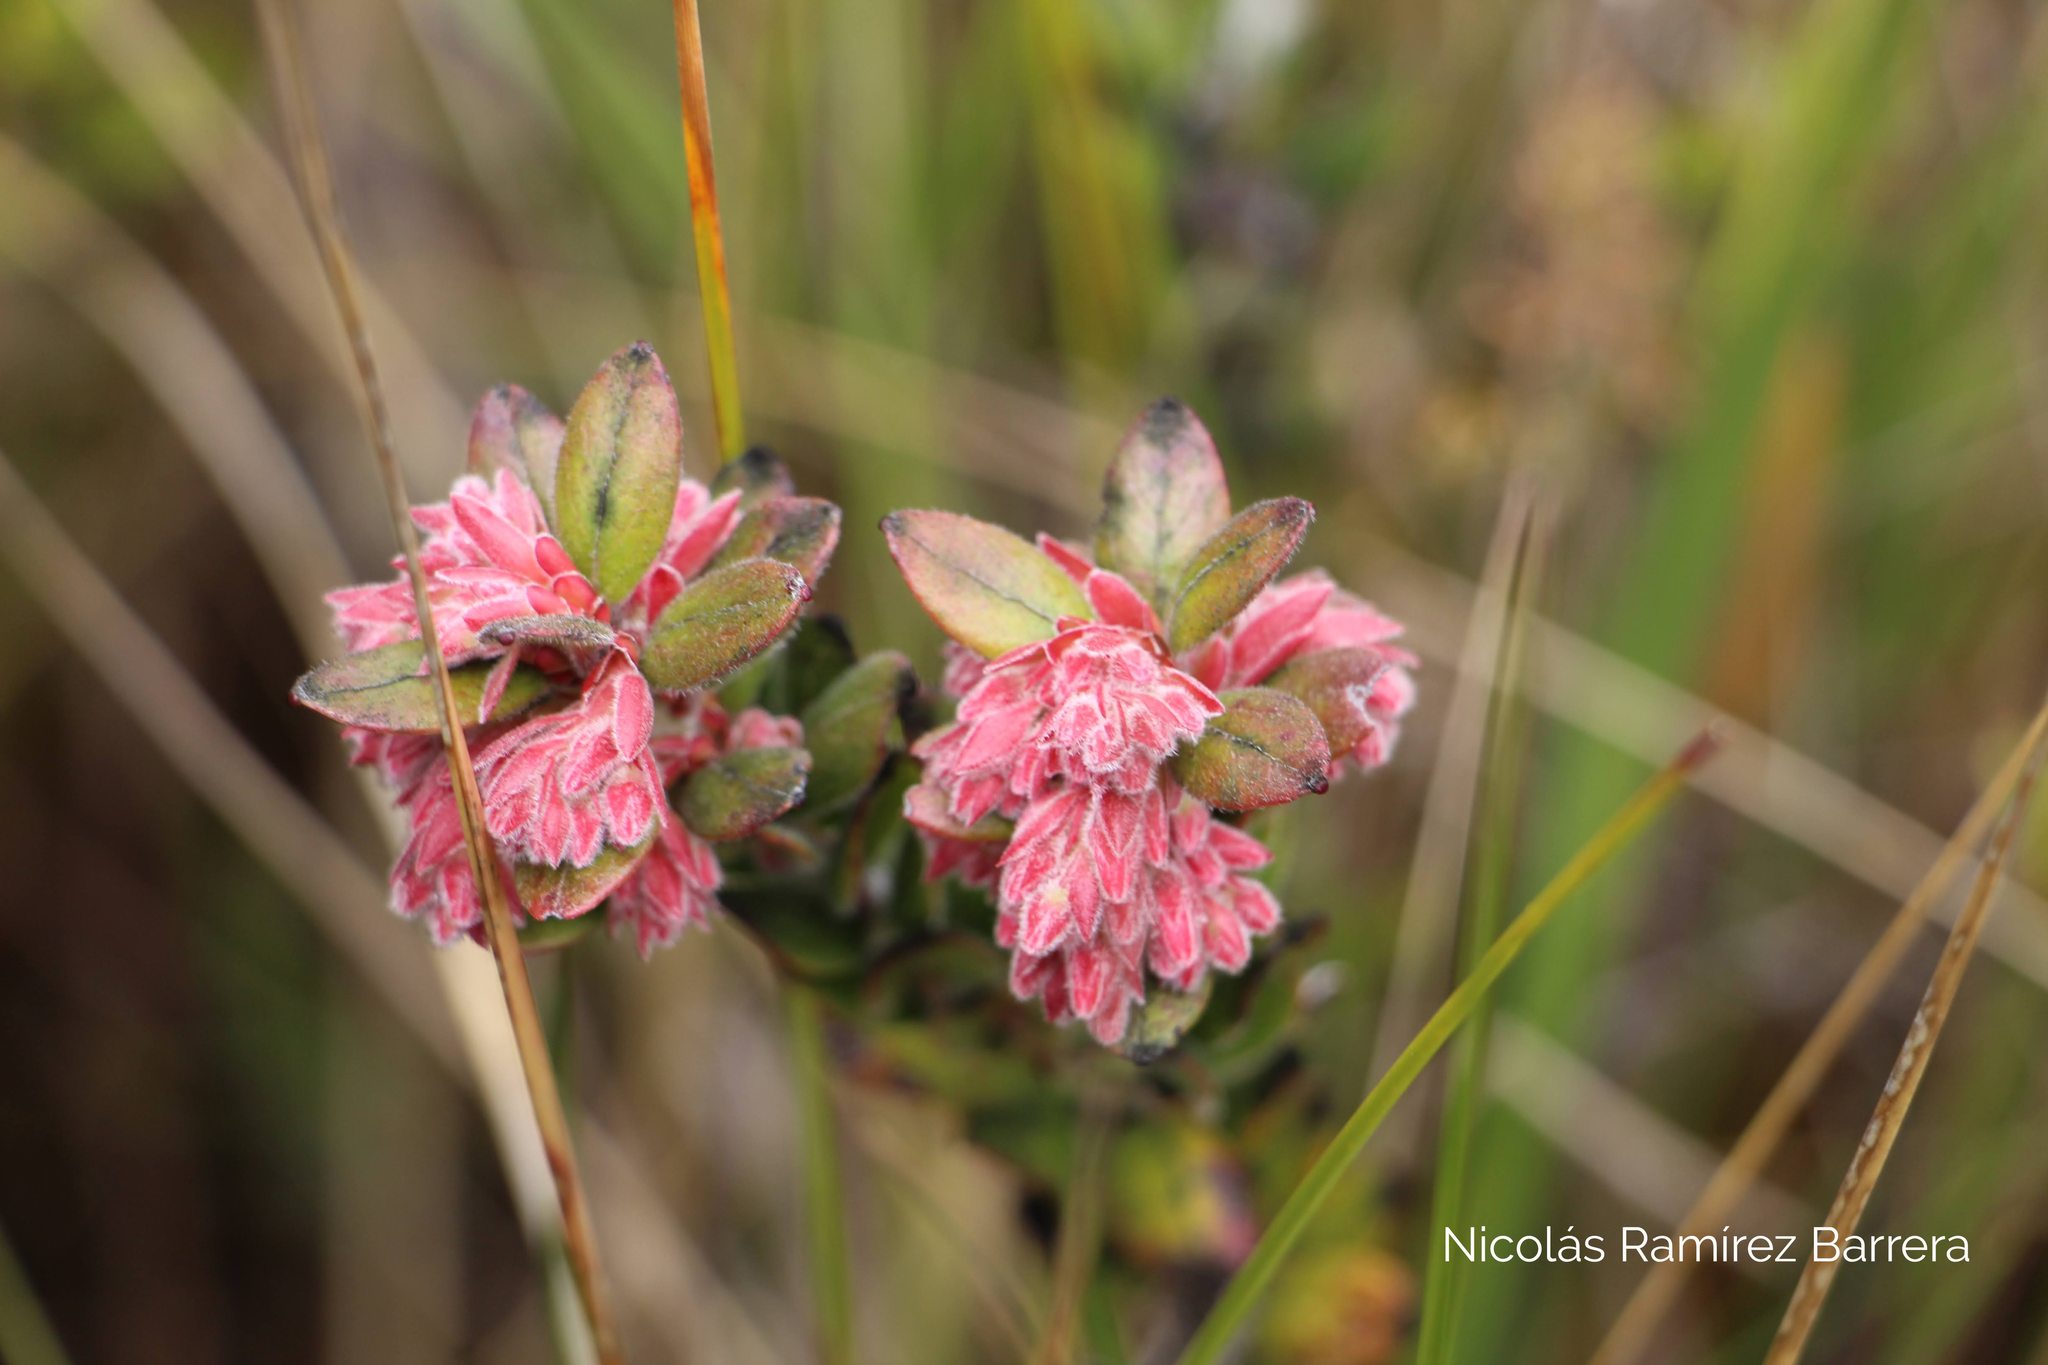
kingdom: Plantae
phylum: Tracheophyta
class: Magnoliopsida
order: Ericales
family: Ericaceae
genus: Gaylussacia
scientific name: Gaylussacia buxifolia
